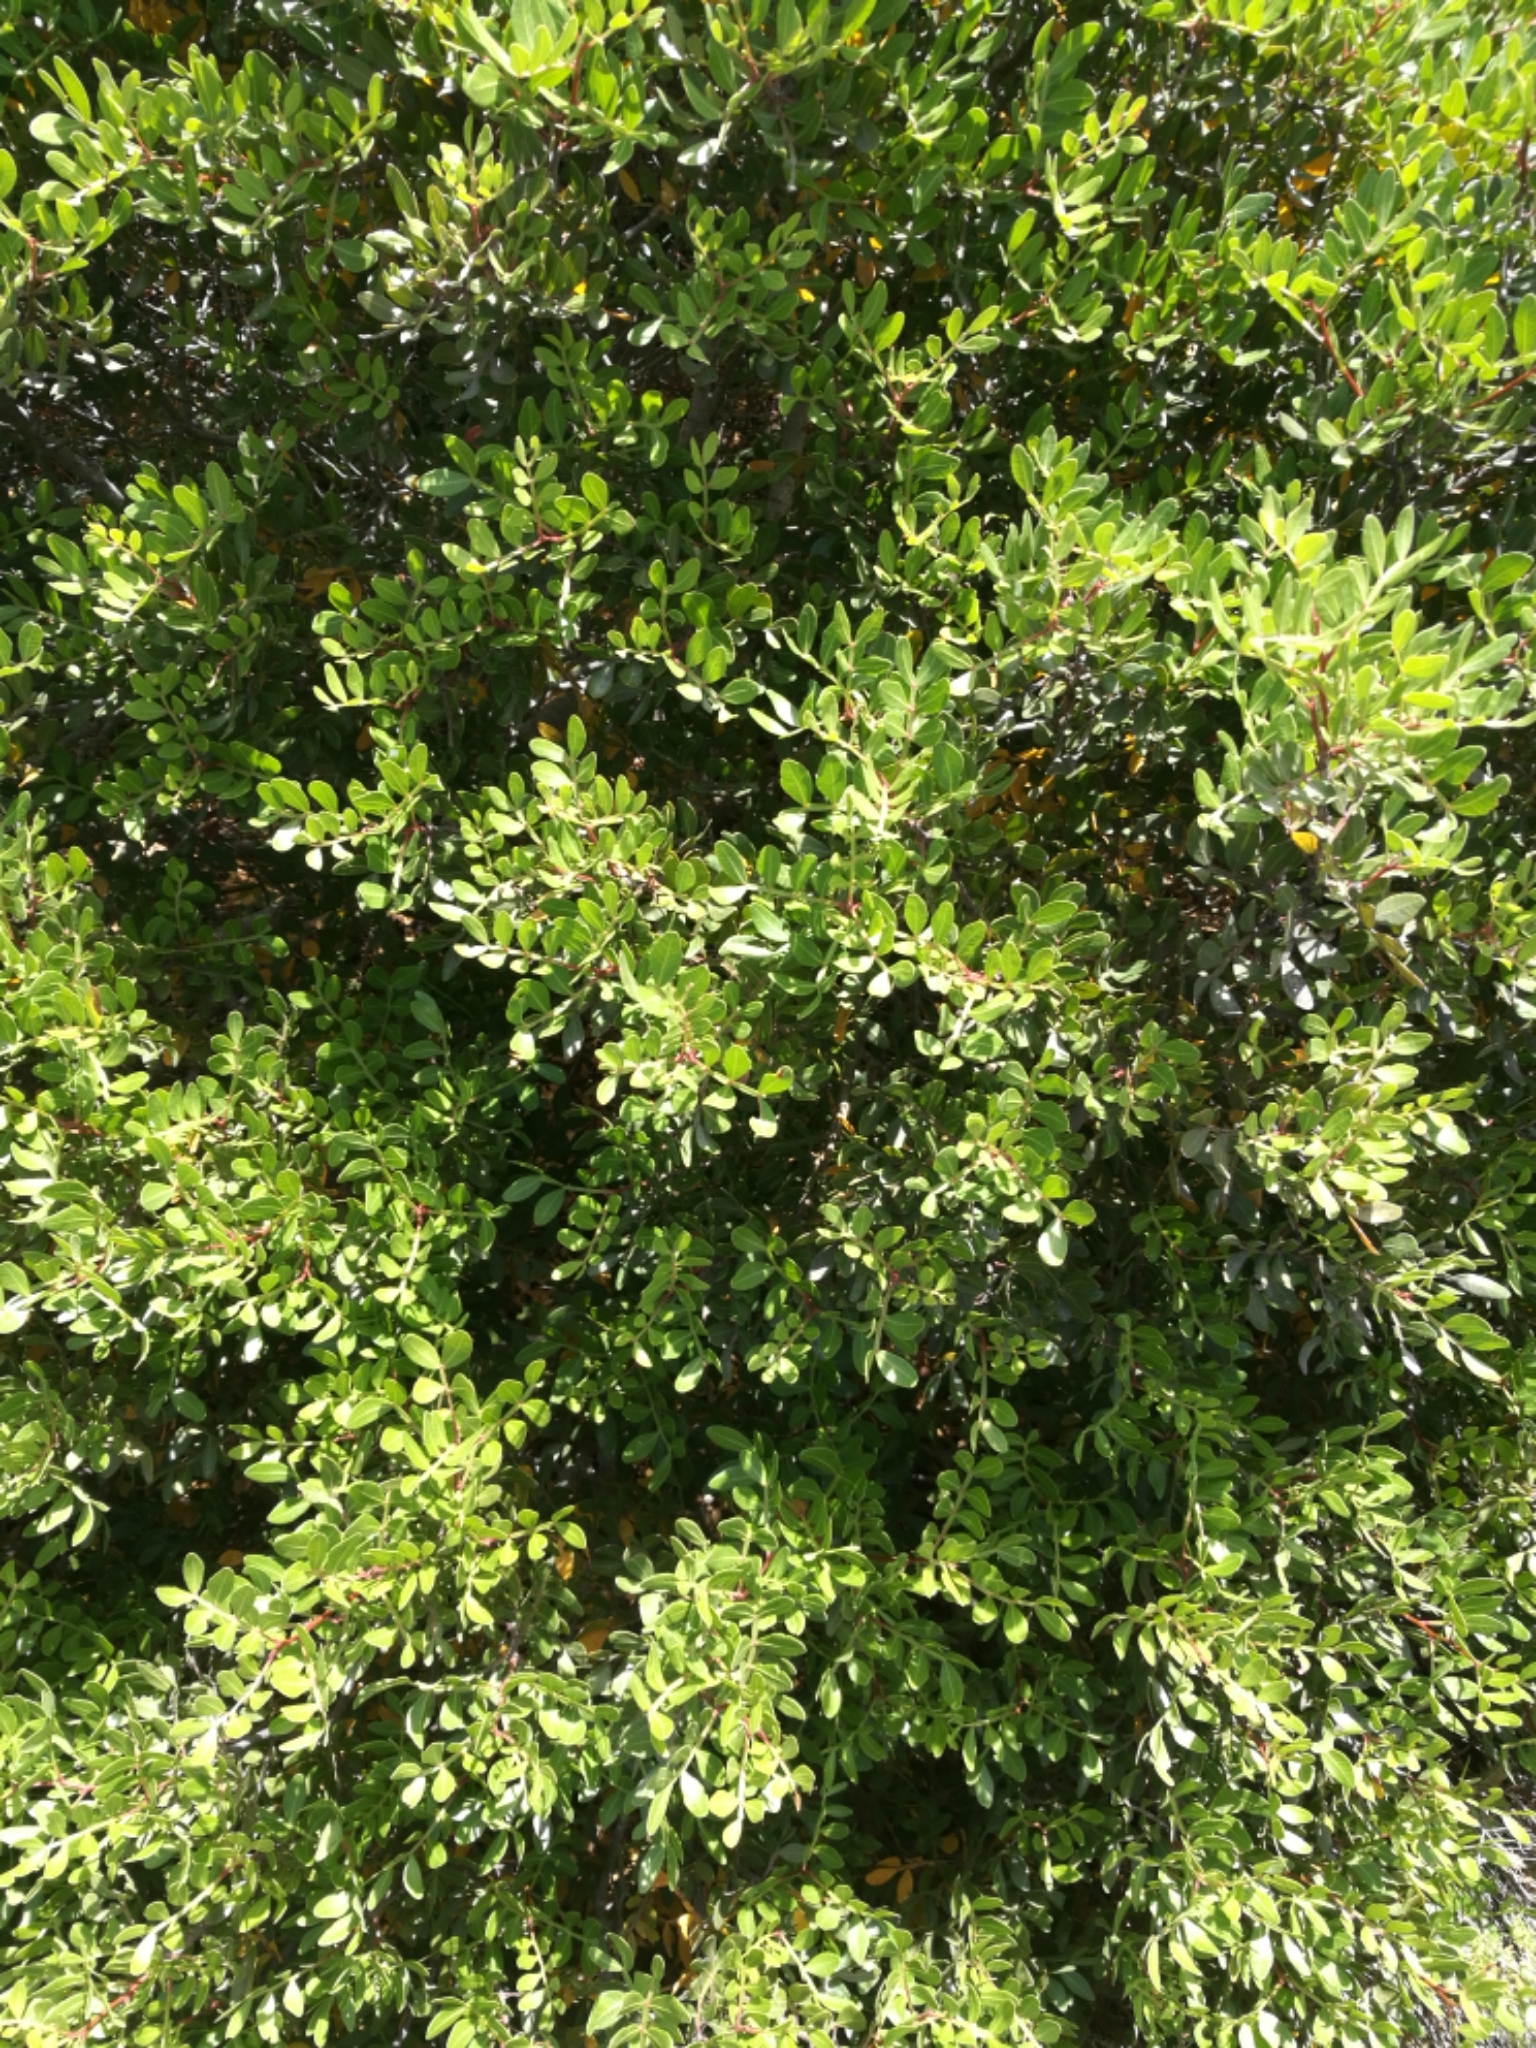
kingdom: Plantae
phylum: Tracheophyta
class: Magnoliopsida
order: Sapindales
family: Anacardiaceae
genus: Pistacia
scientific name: Pistacia lentiscus
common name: Lentisk
